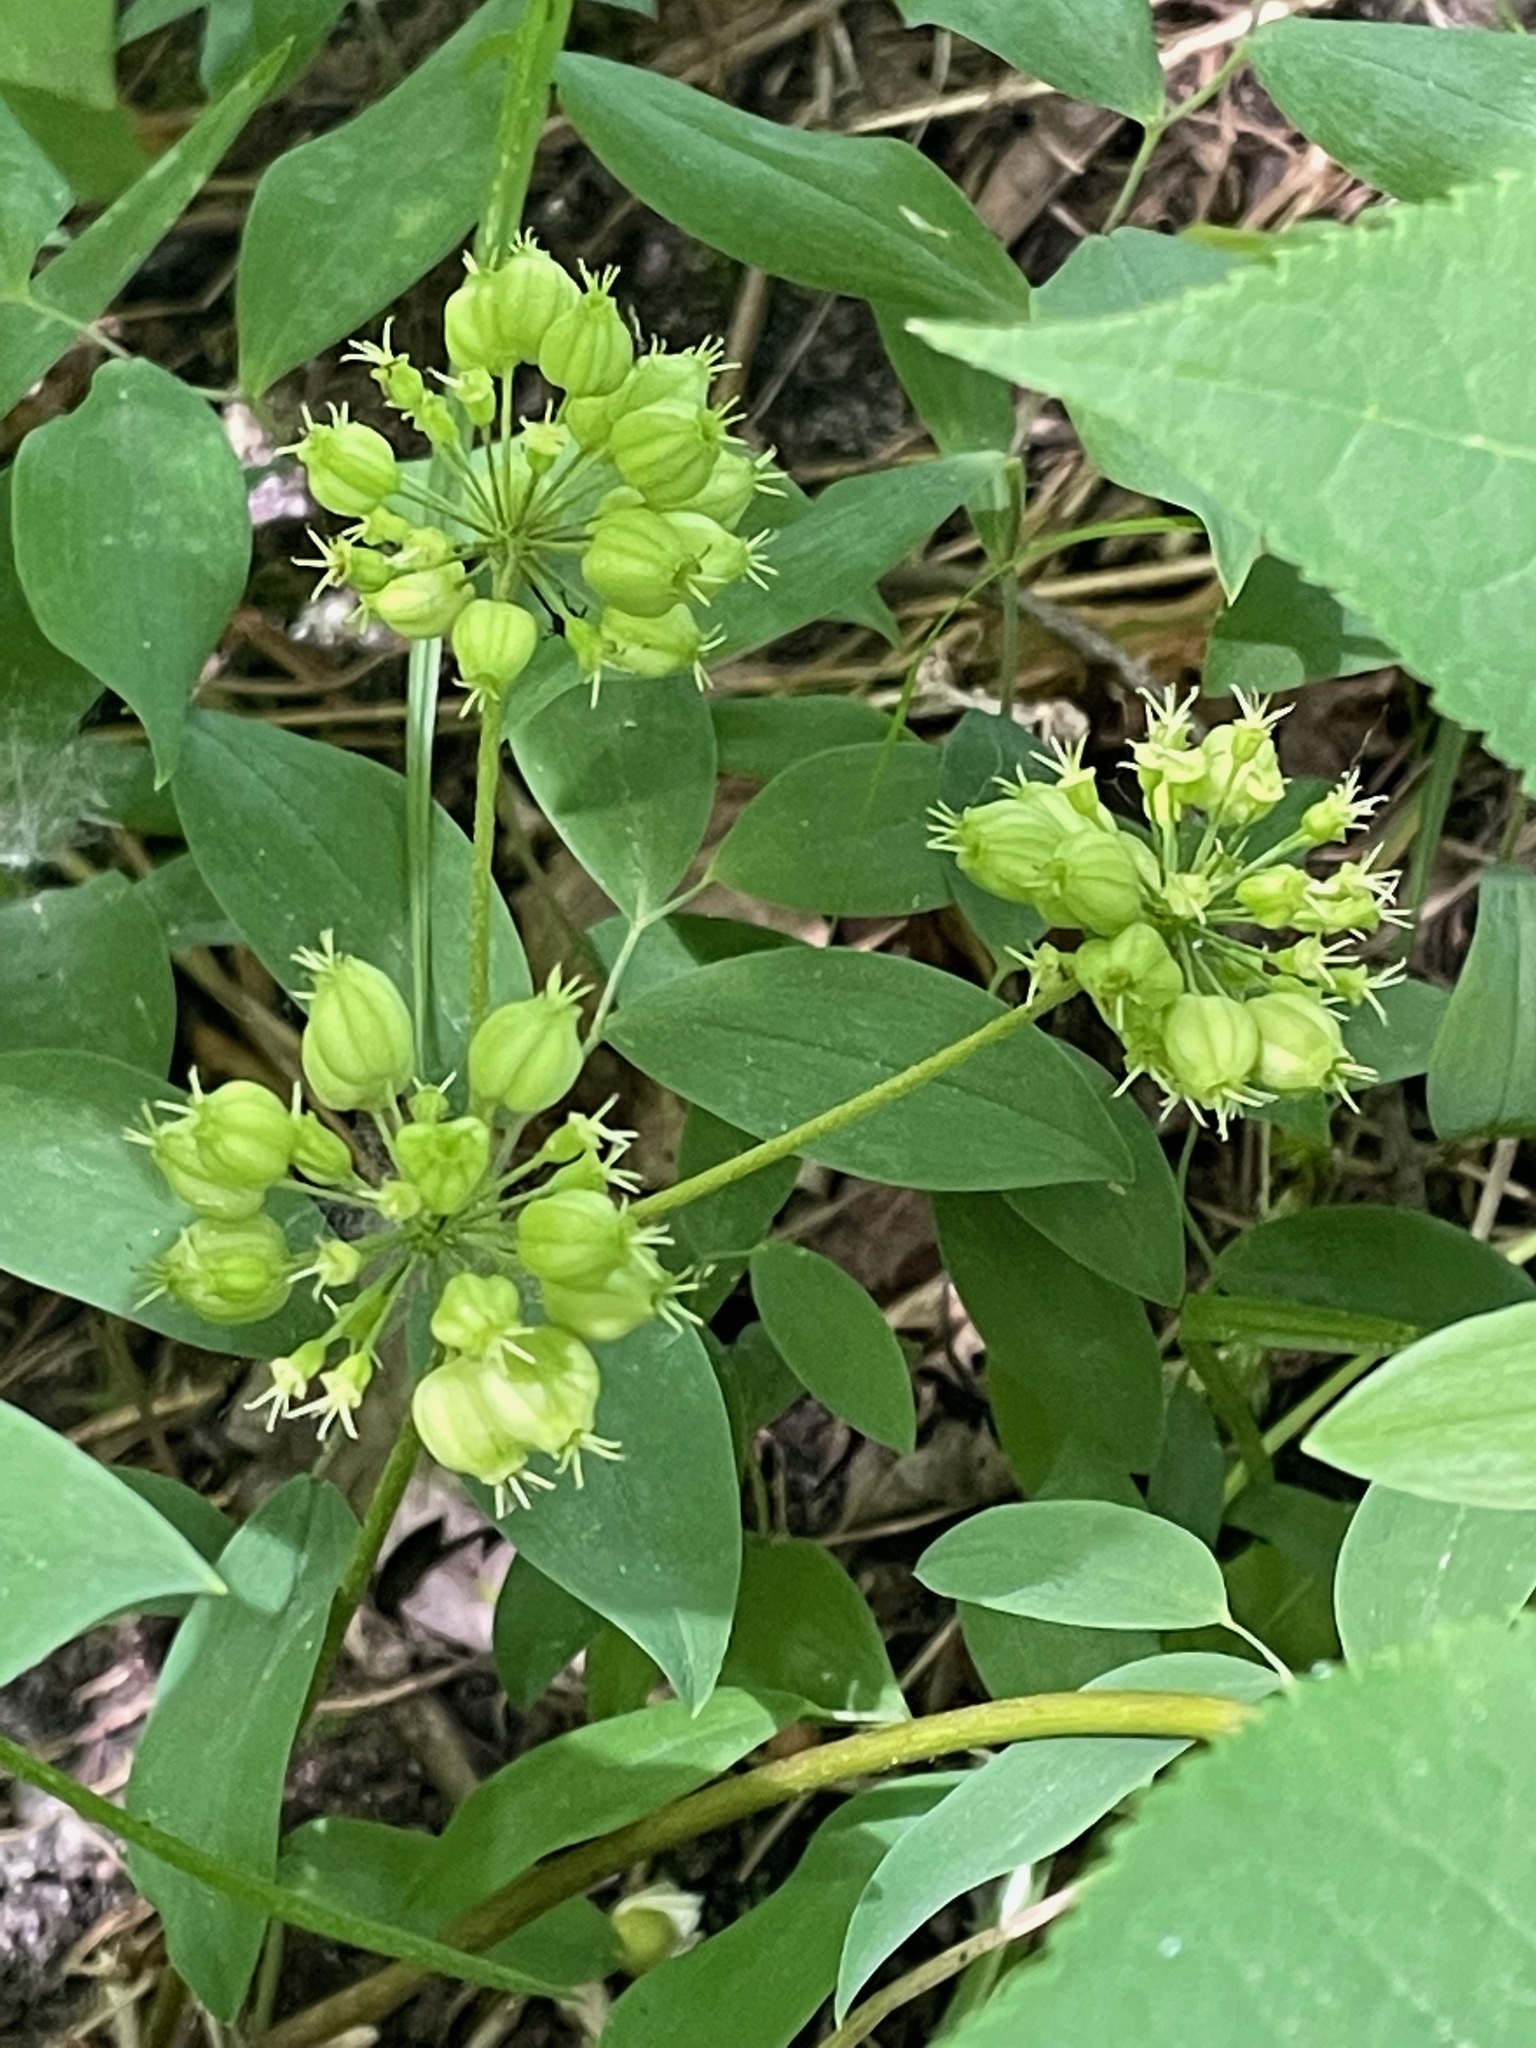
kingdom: Plantae
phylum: Tracheophyta
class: Magnoliopsida
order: Apiales
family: Araliaceae
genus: Aralia
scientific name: Aralia nudicaulis
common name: Wild sarsaparilla
